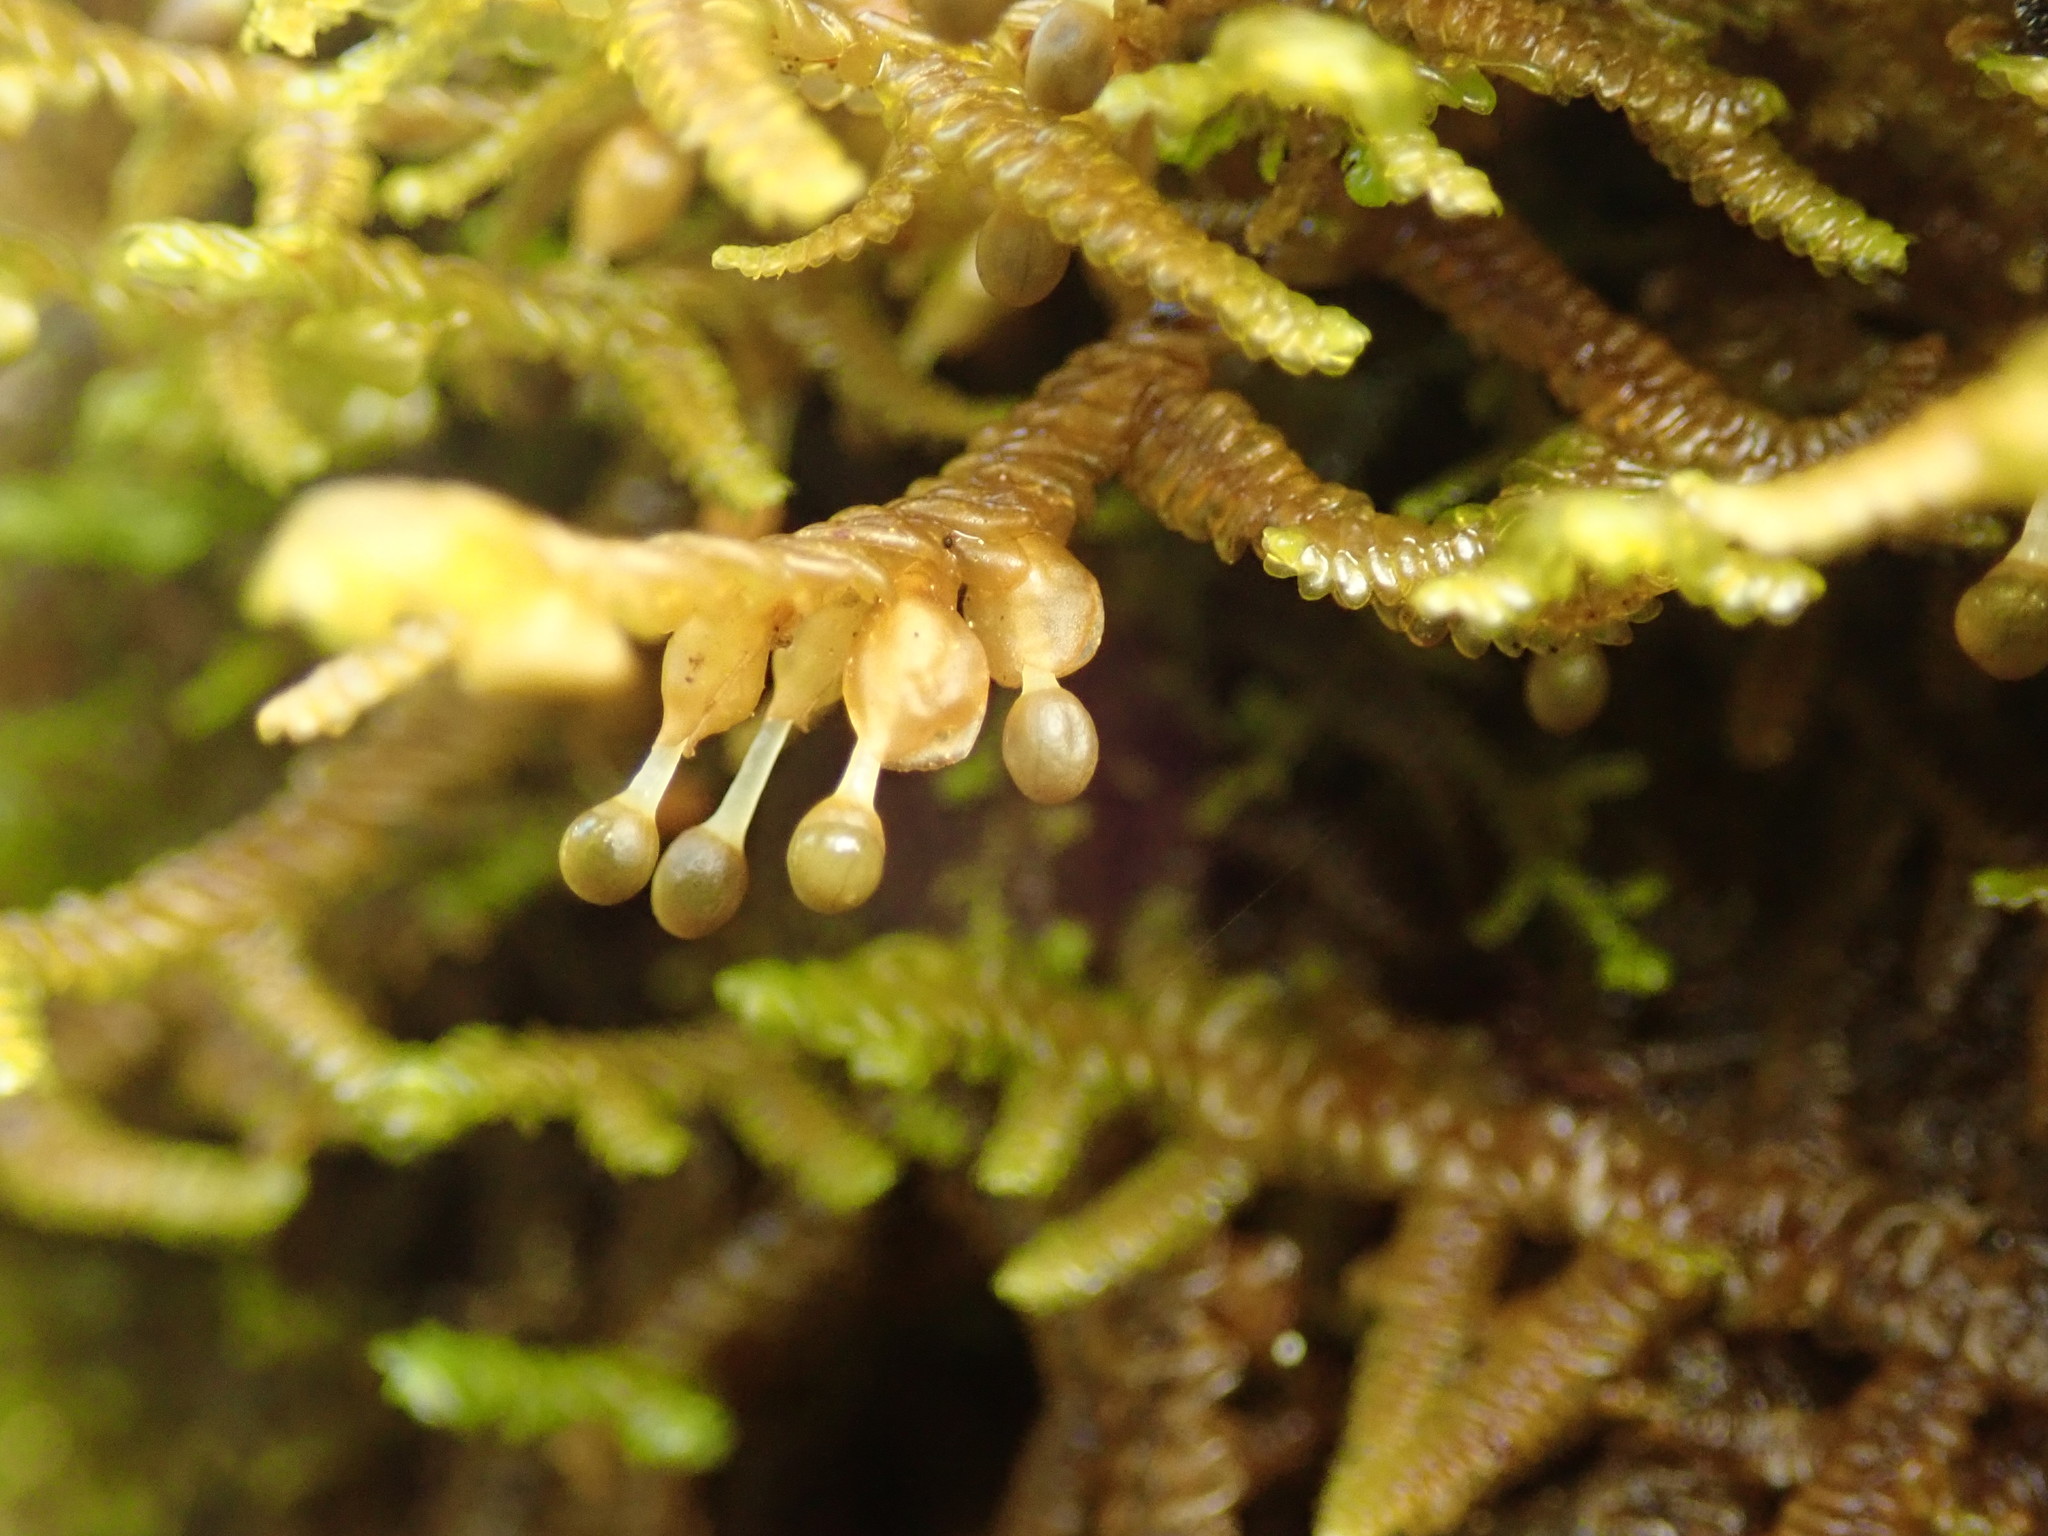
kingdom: Plantae
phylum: Marchantiophyta
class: Jungermanniopsida
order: Porellales
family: Porellaceae
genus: Porella
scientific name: Porella navicularis
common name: Tree ruffle liverwort
